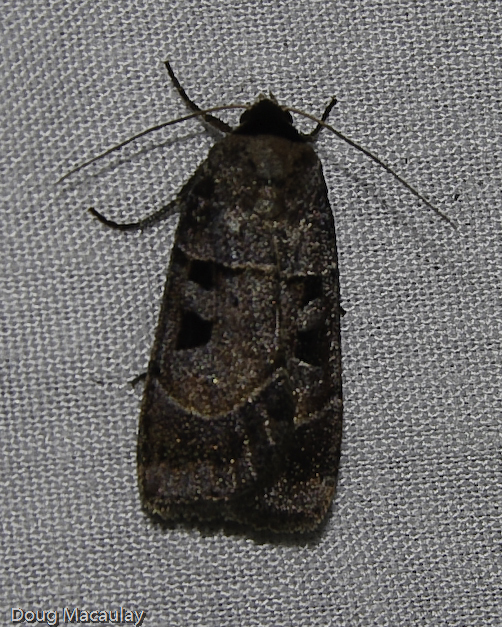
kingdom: Animalia
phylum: Arthropoda
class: Insecta
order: Lepidoptera
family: Noctuidae
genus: Agnorisma
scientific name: Agnorisma bugrai
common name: Collared dart
